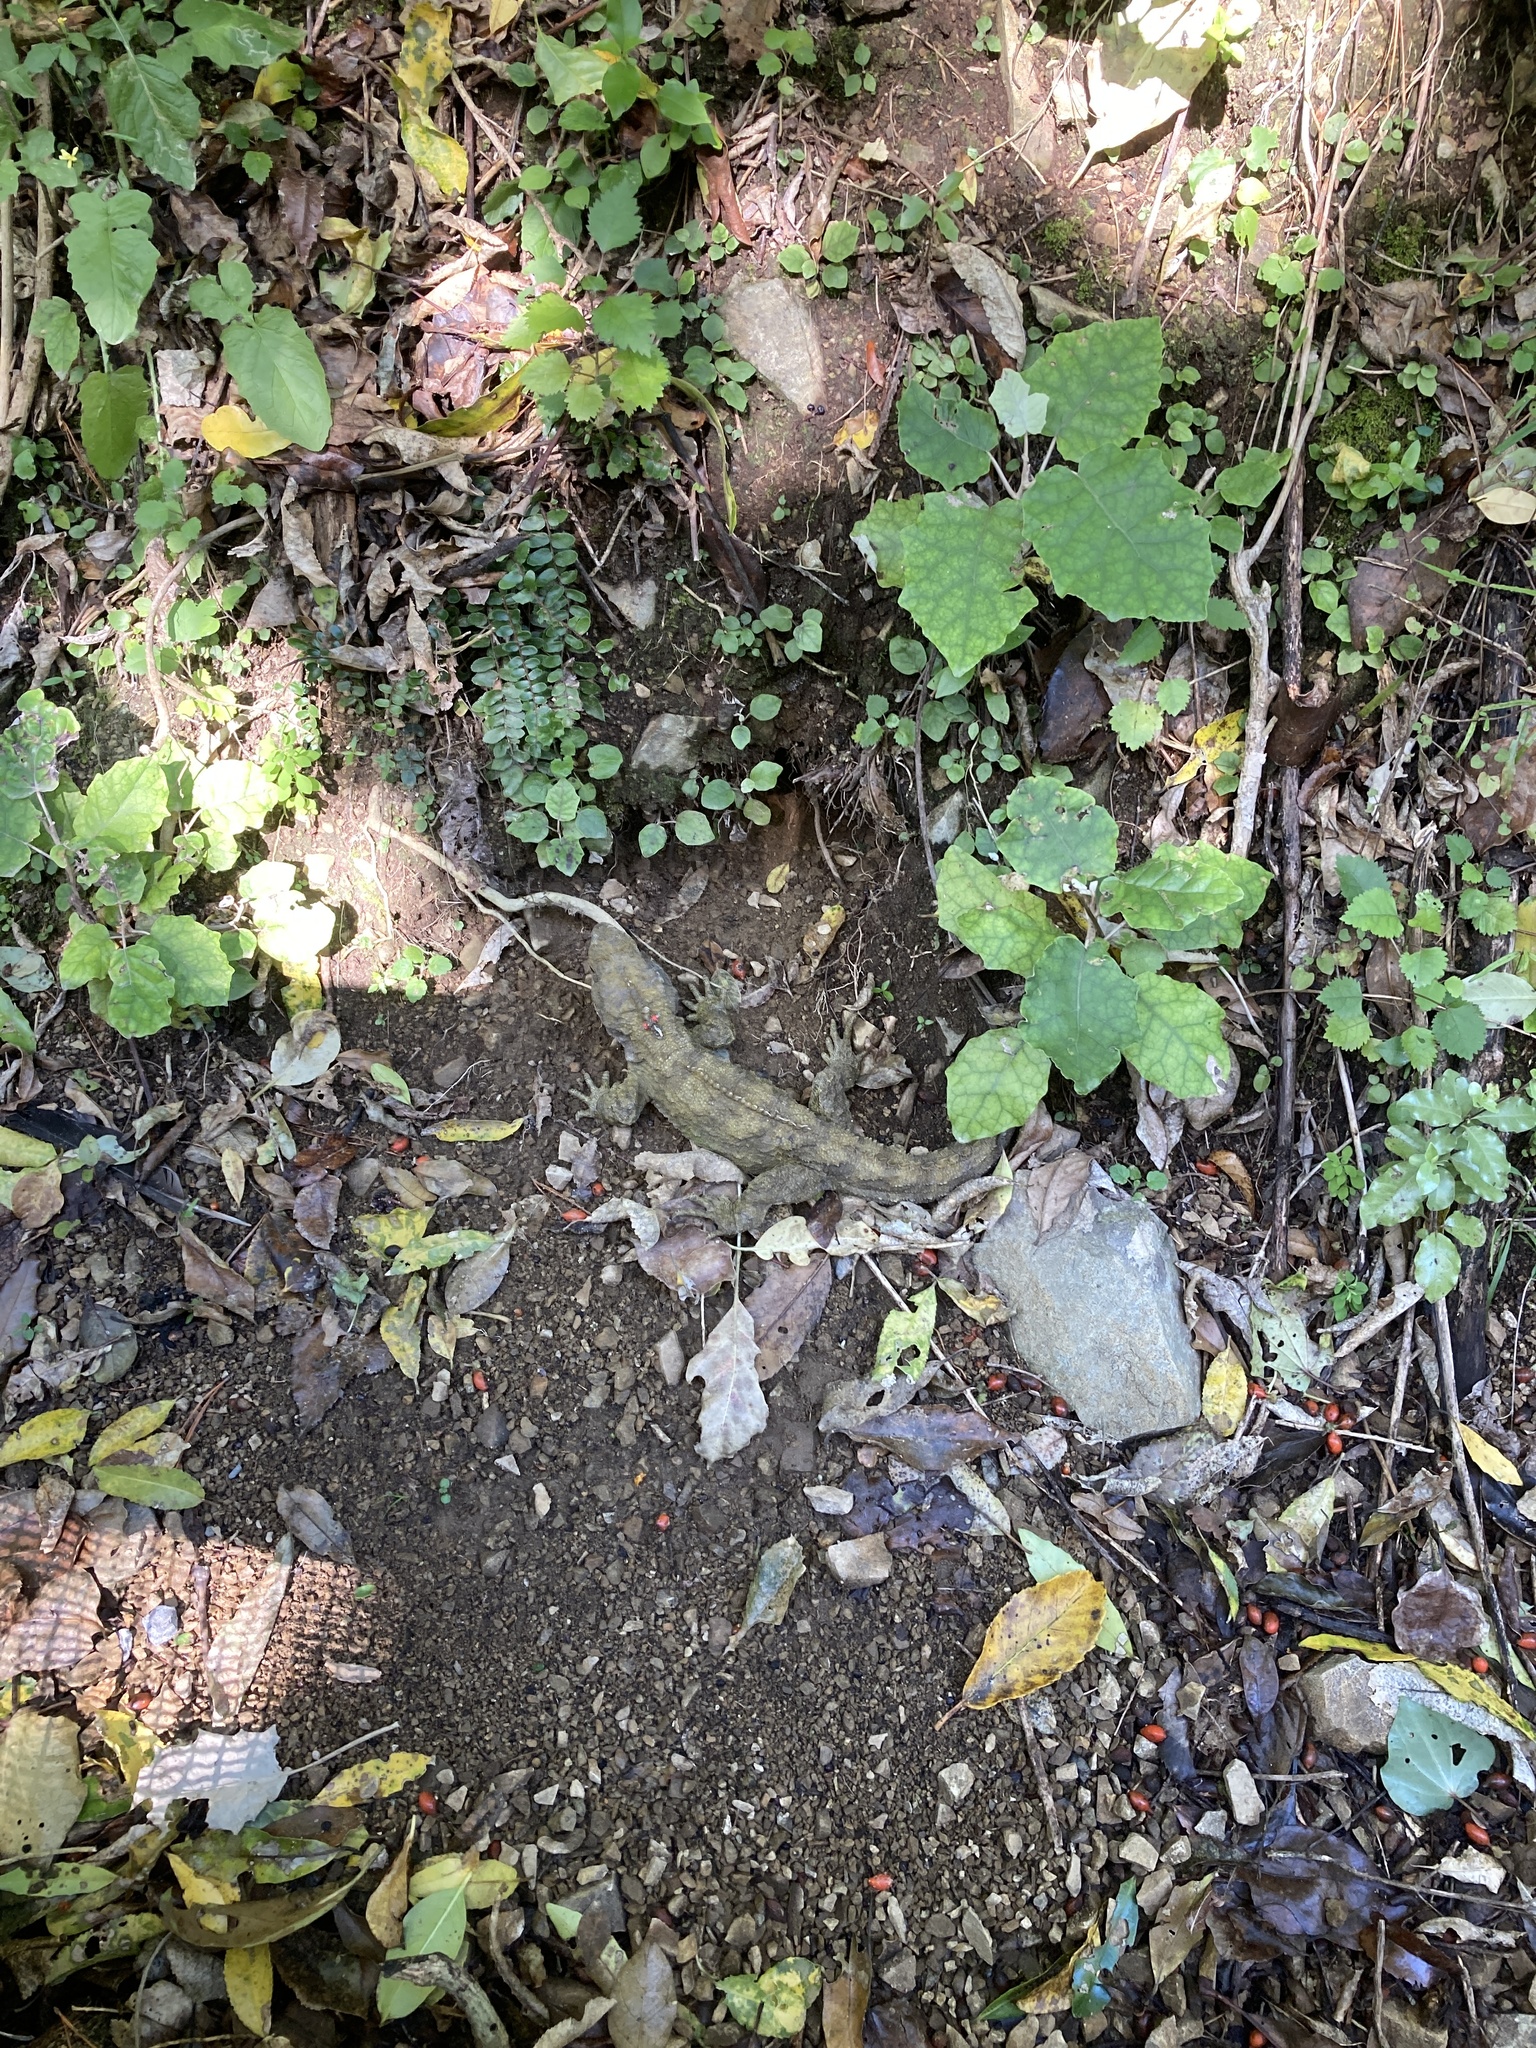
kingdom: Animalia
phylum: Chordata
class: Sphenodontia
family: Sphenodontidae
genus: Sphenodon
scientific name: Sphenodon punctatus
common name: Tuatara
